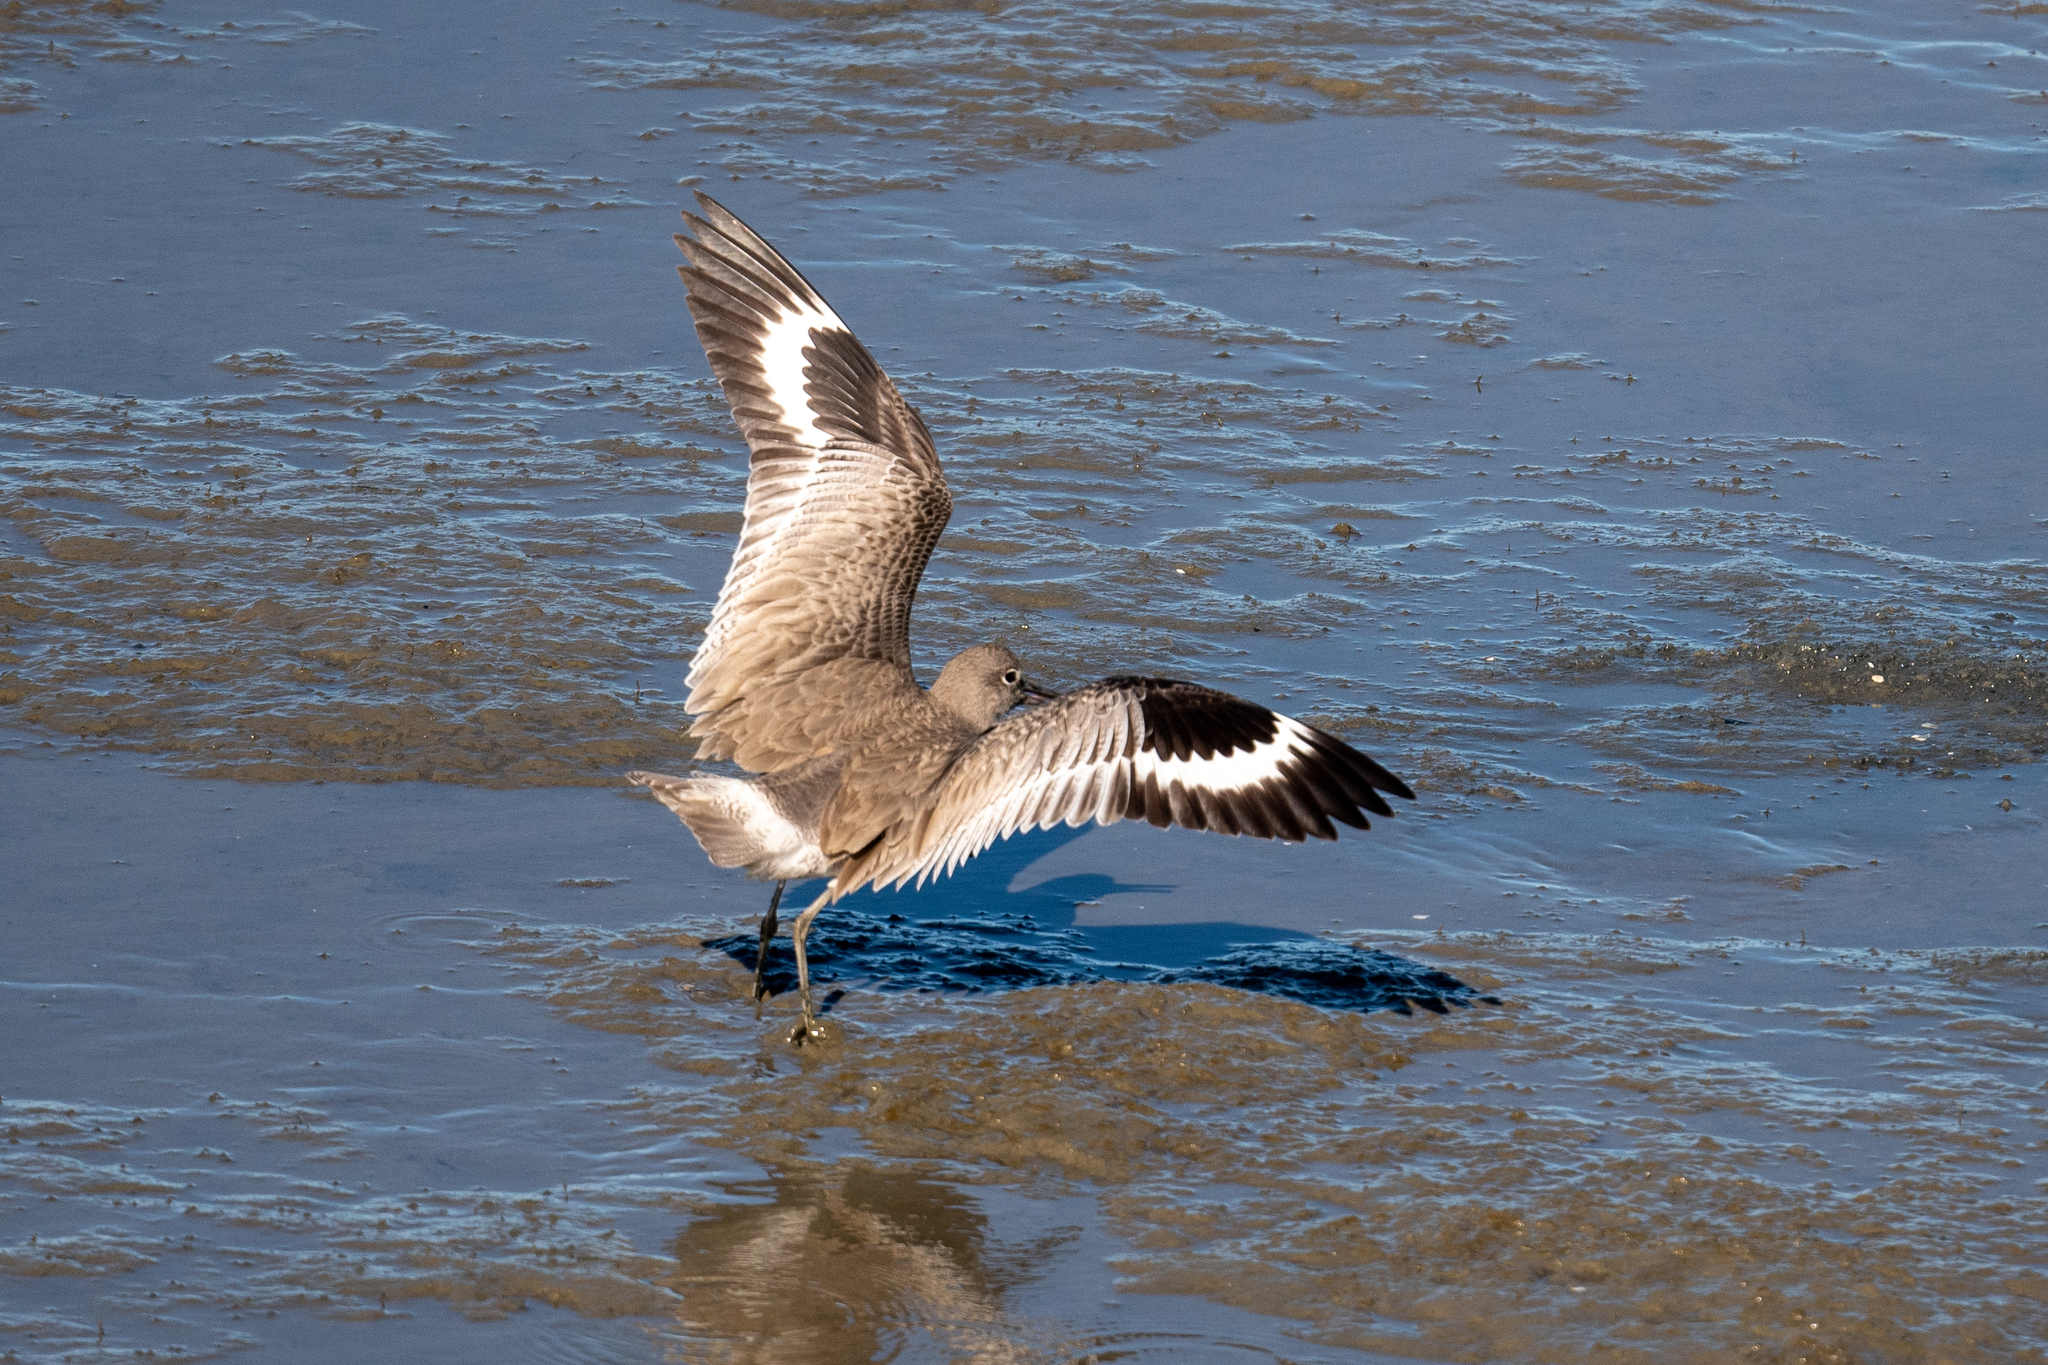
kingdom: Animalia
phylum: Chordata
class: Aves
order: Charadriiformes
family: Scolopacidae
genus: Tringa
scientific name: Tringa semipalmata
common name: Willet
